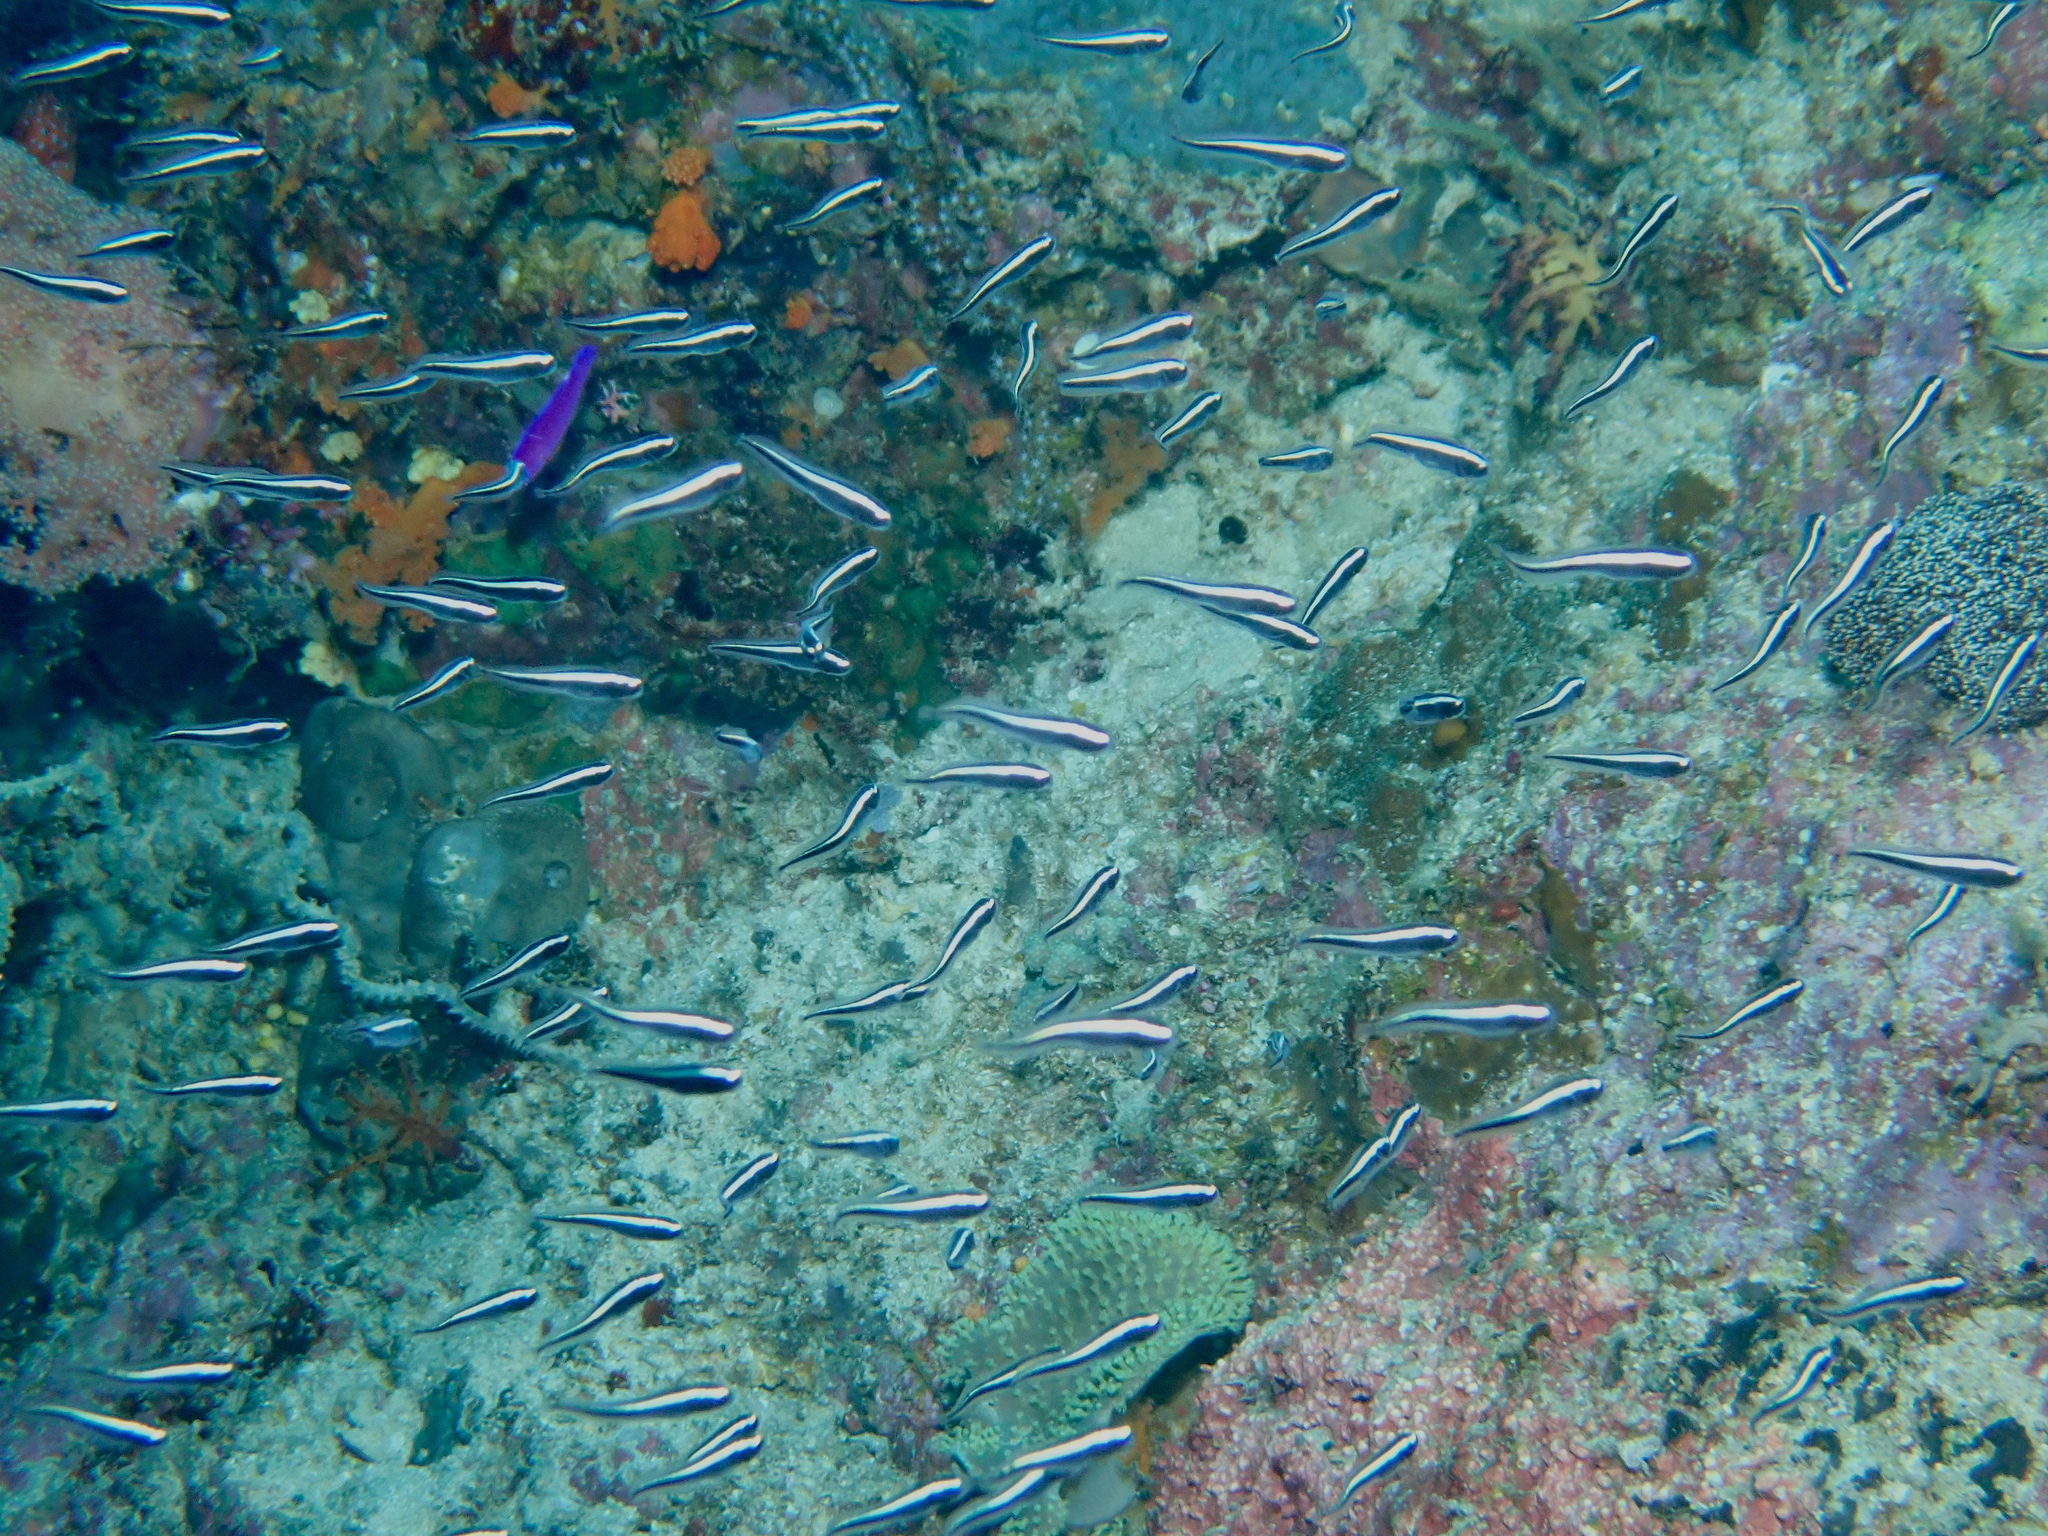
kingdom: Animalia
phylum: Chordata
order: Perciformes
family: Pholidichthyidae
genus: Pholidichthys
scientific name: Pholidichthys leucotaenia
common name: Convict blenny
